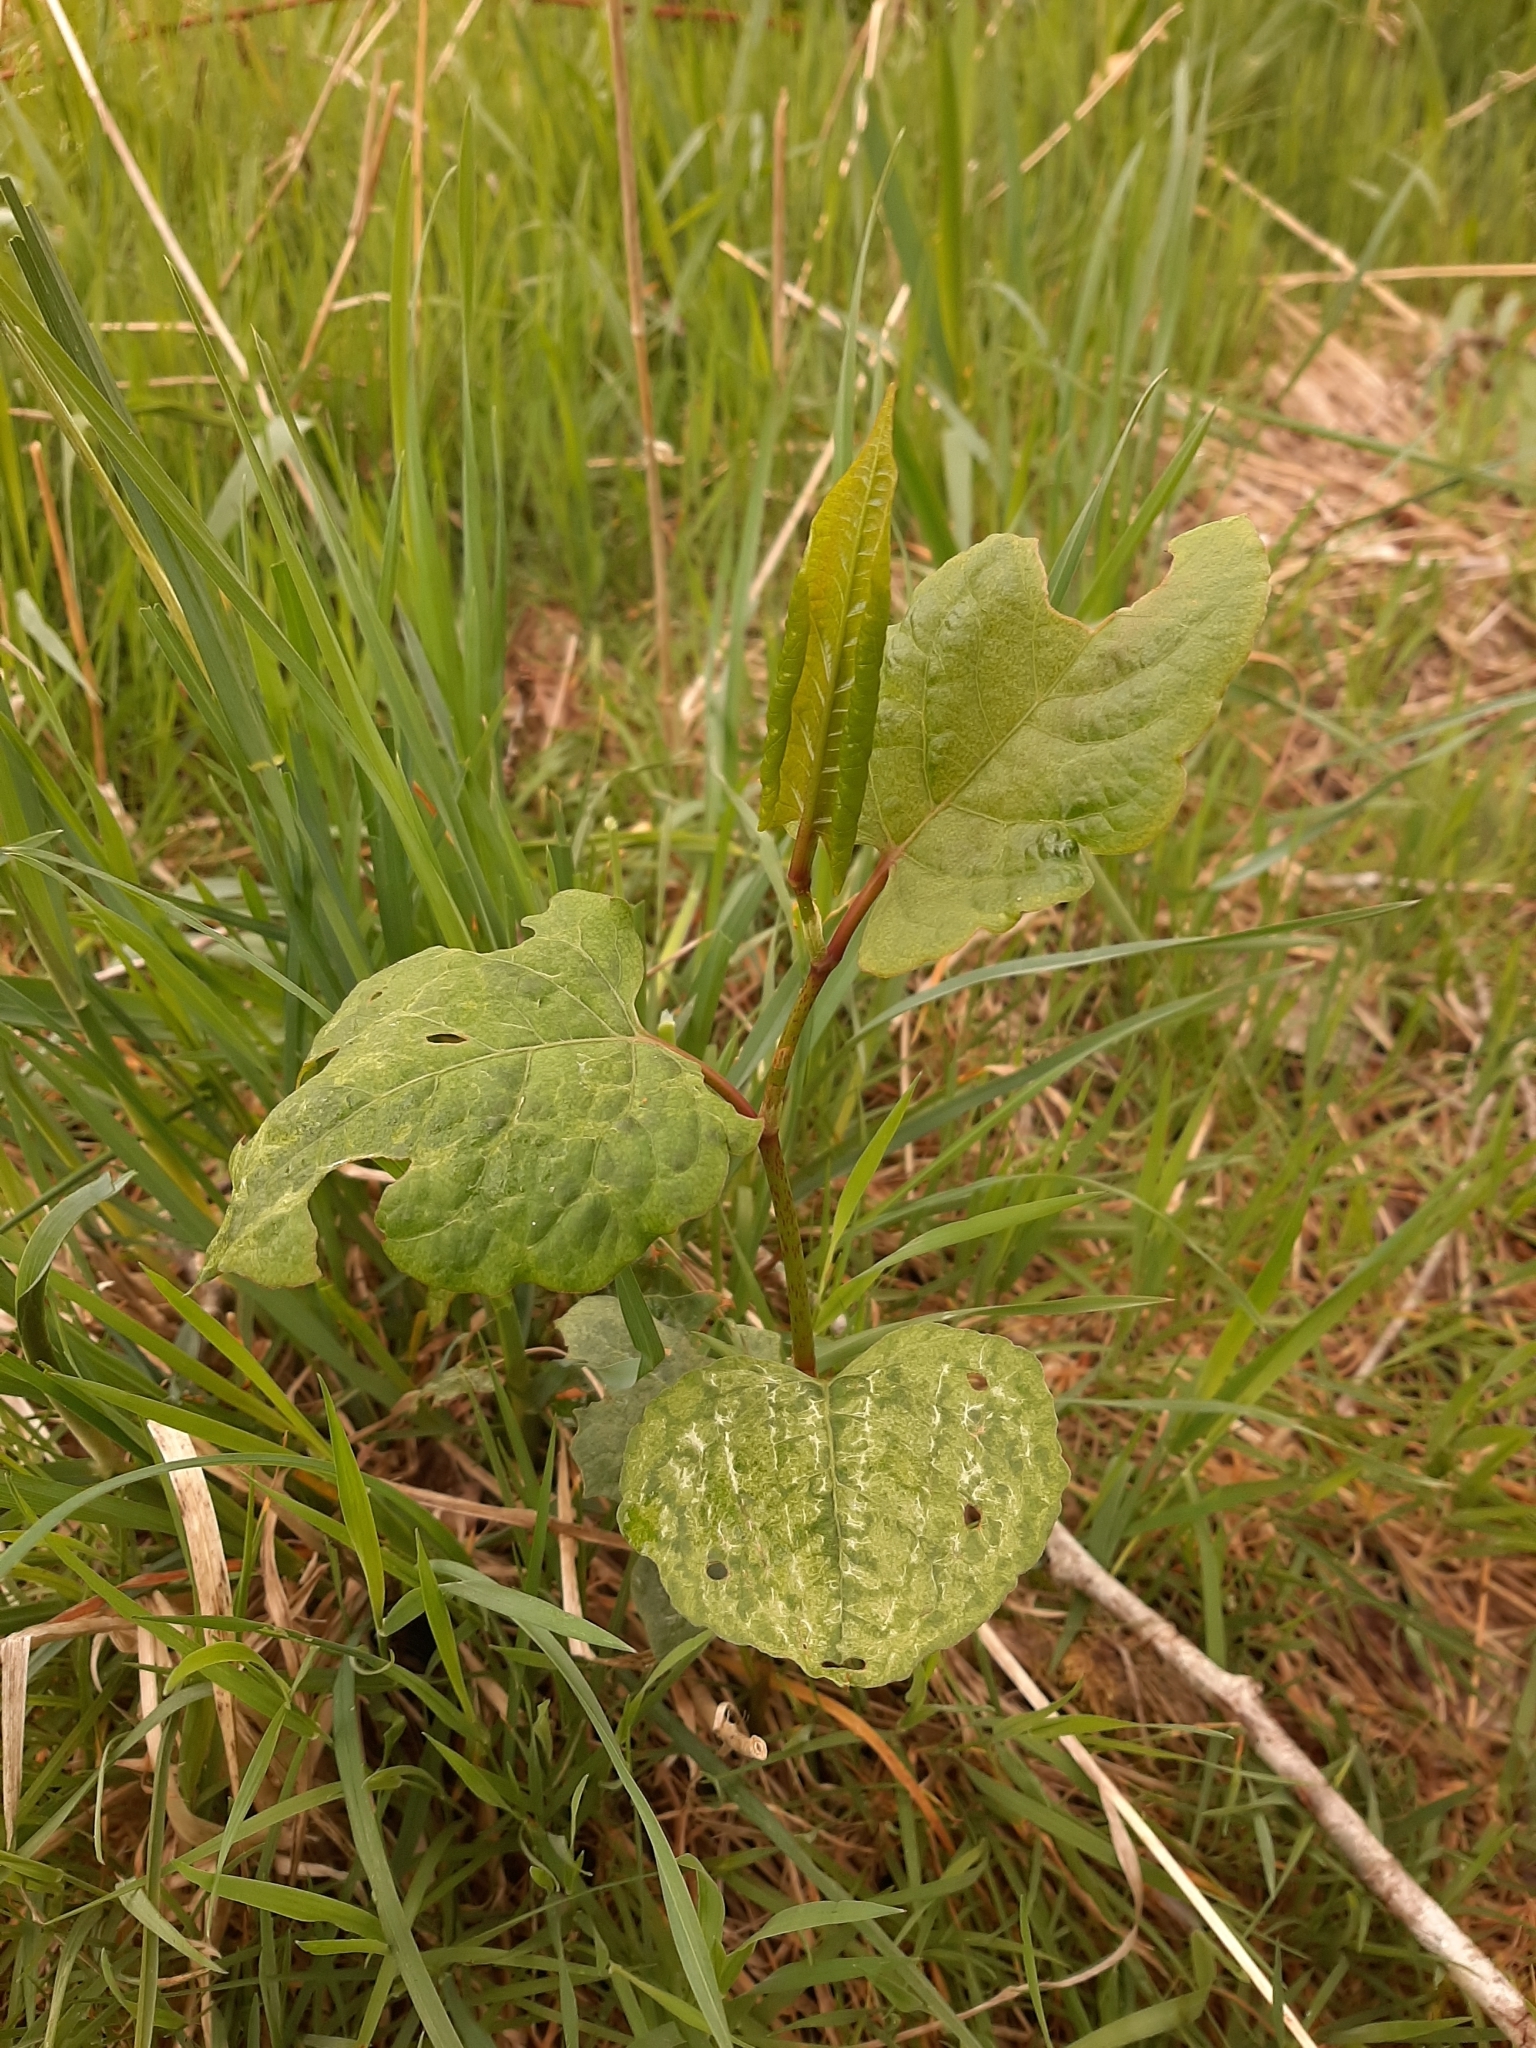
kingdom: Plantae
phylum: Tracheophyta
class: Magnoliopsida
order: Caryophyllales
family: Polygonaceae
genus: Reynoutria
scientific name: Reynoutria japonica
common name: Japanese knotweed
